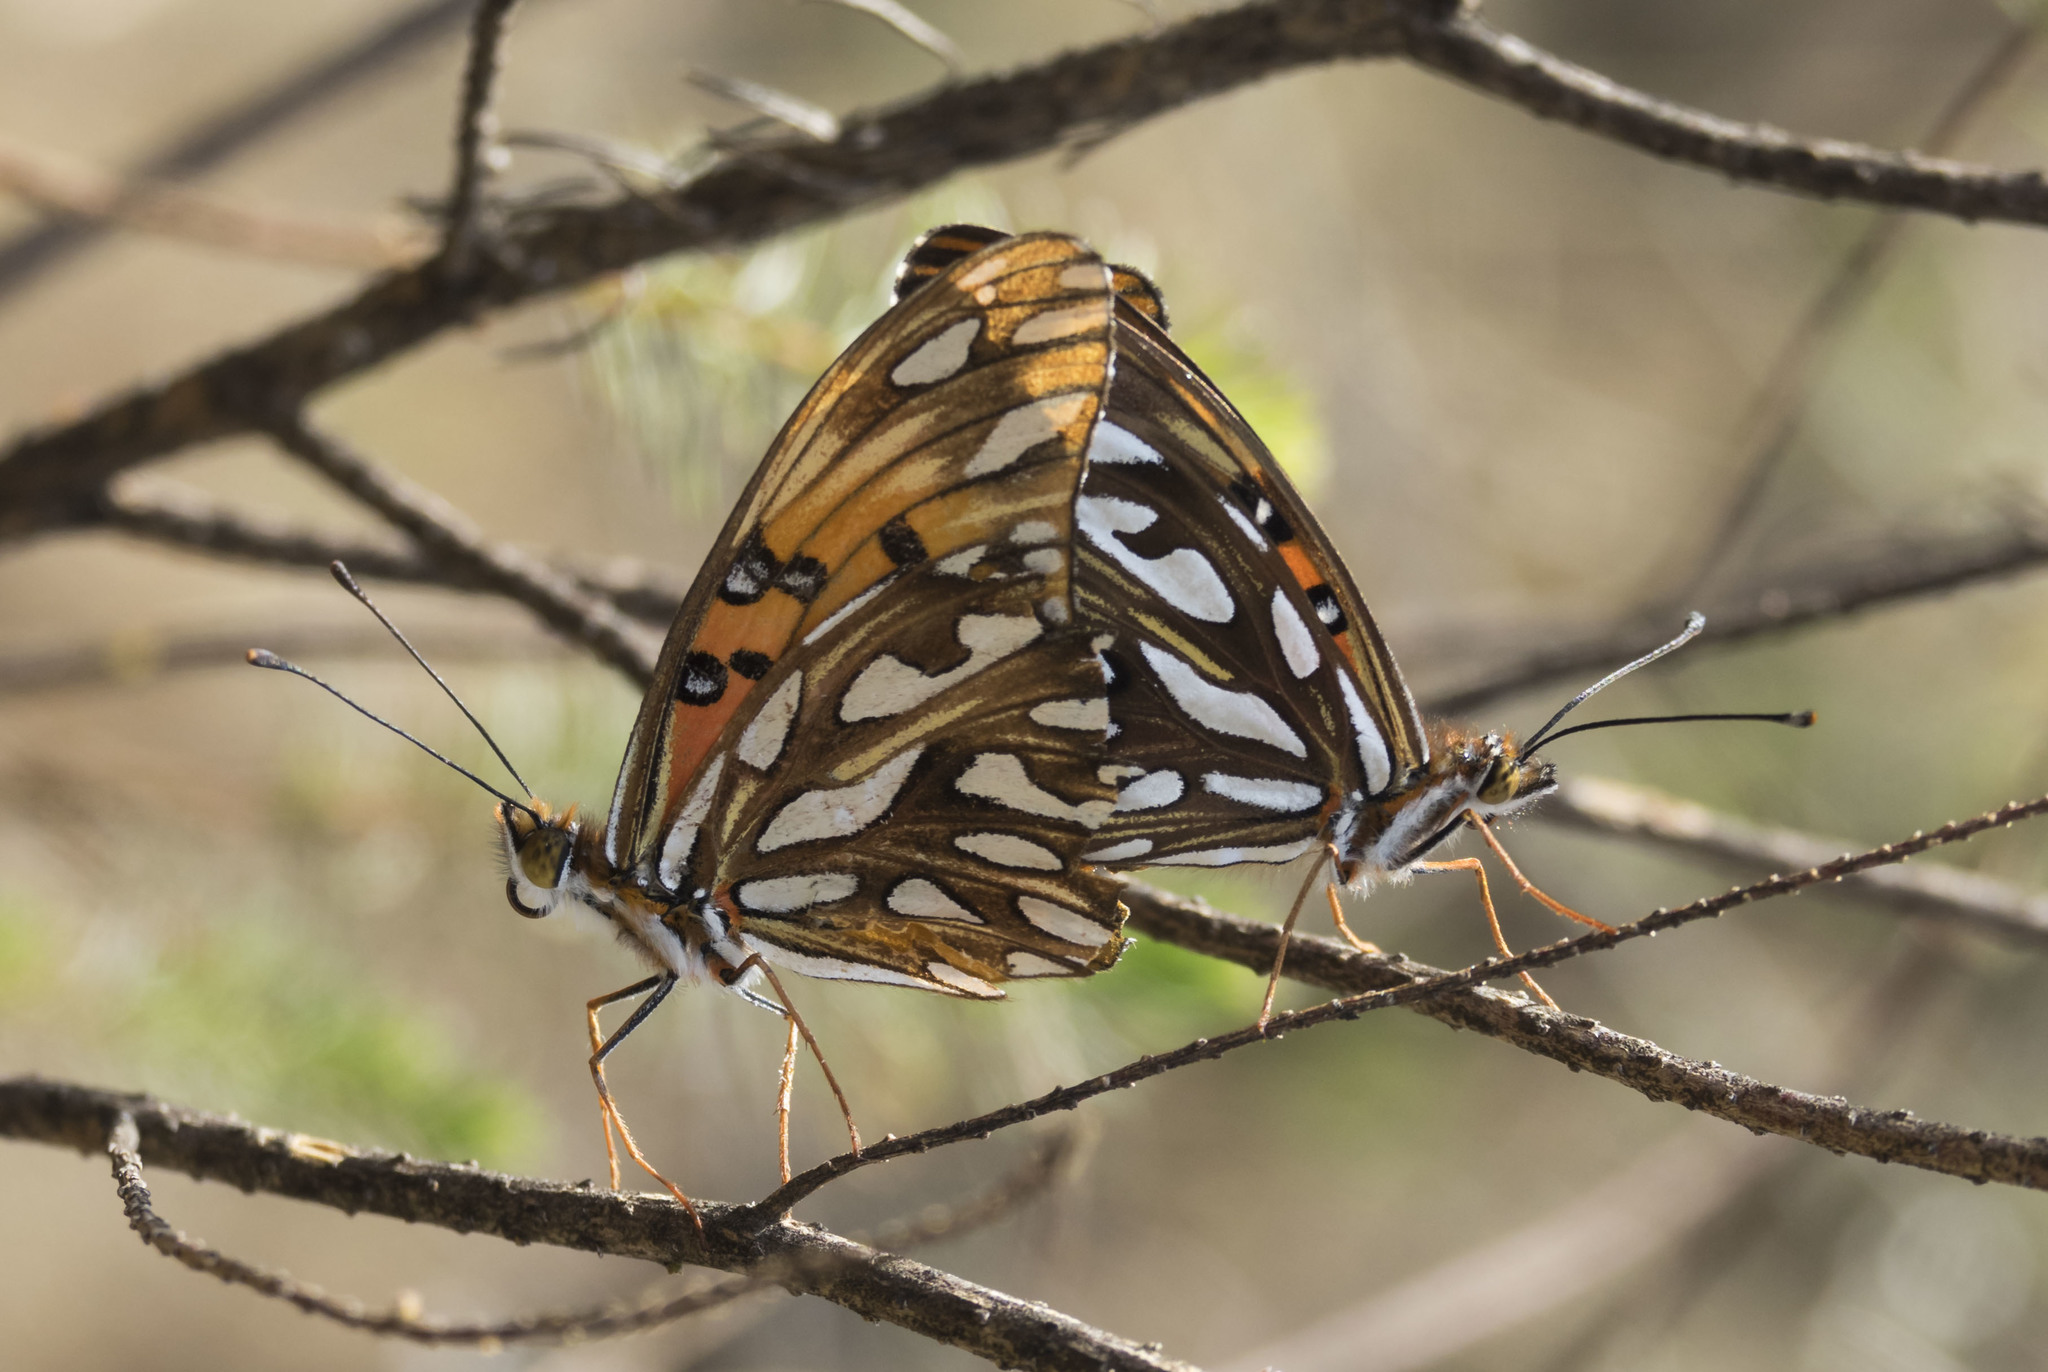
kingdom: Animalia
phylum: Arthropoda
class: Insecta
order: Lepidoptera
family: Nymphalidae
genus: Dione
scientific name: Dione vanillae
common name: Gulf fritillary
